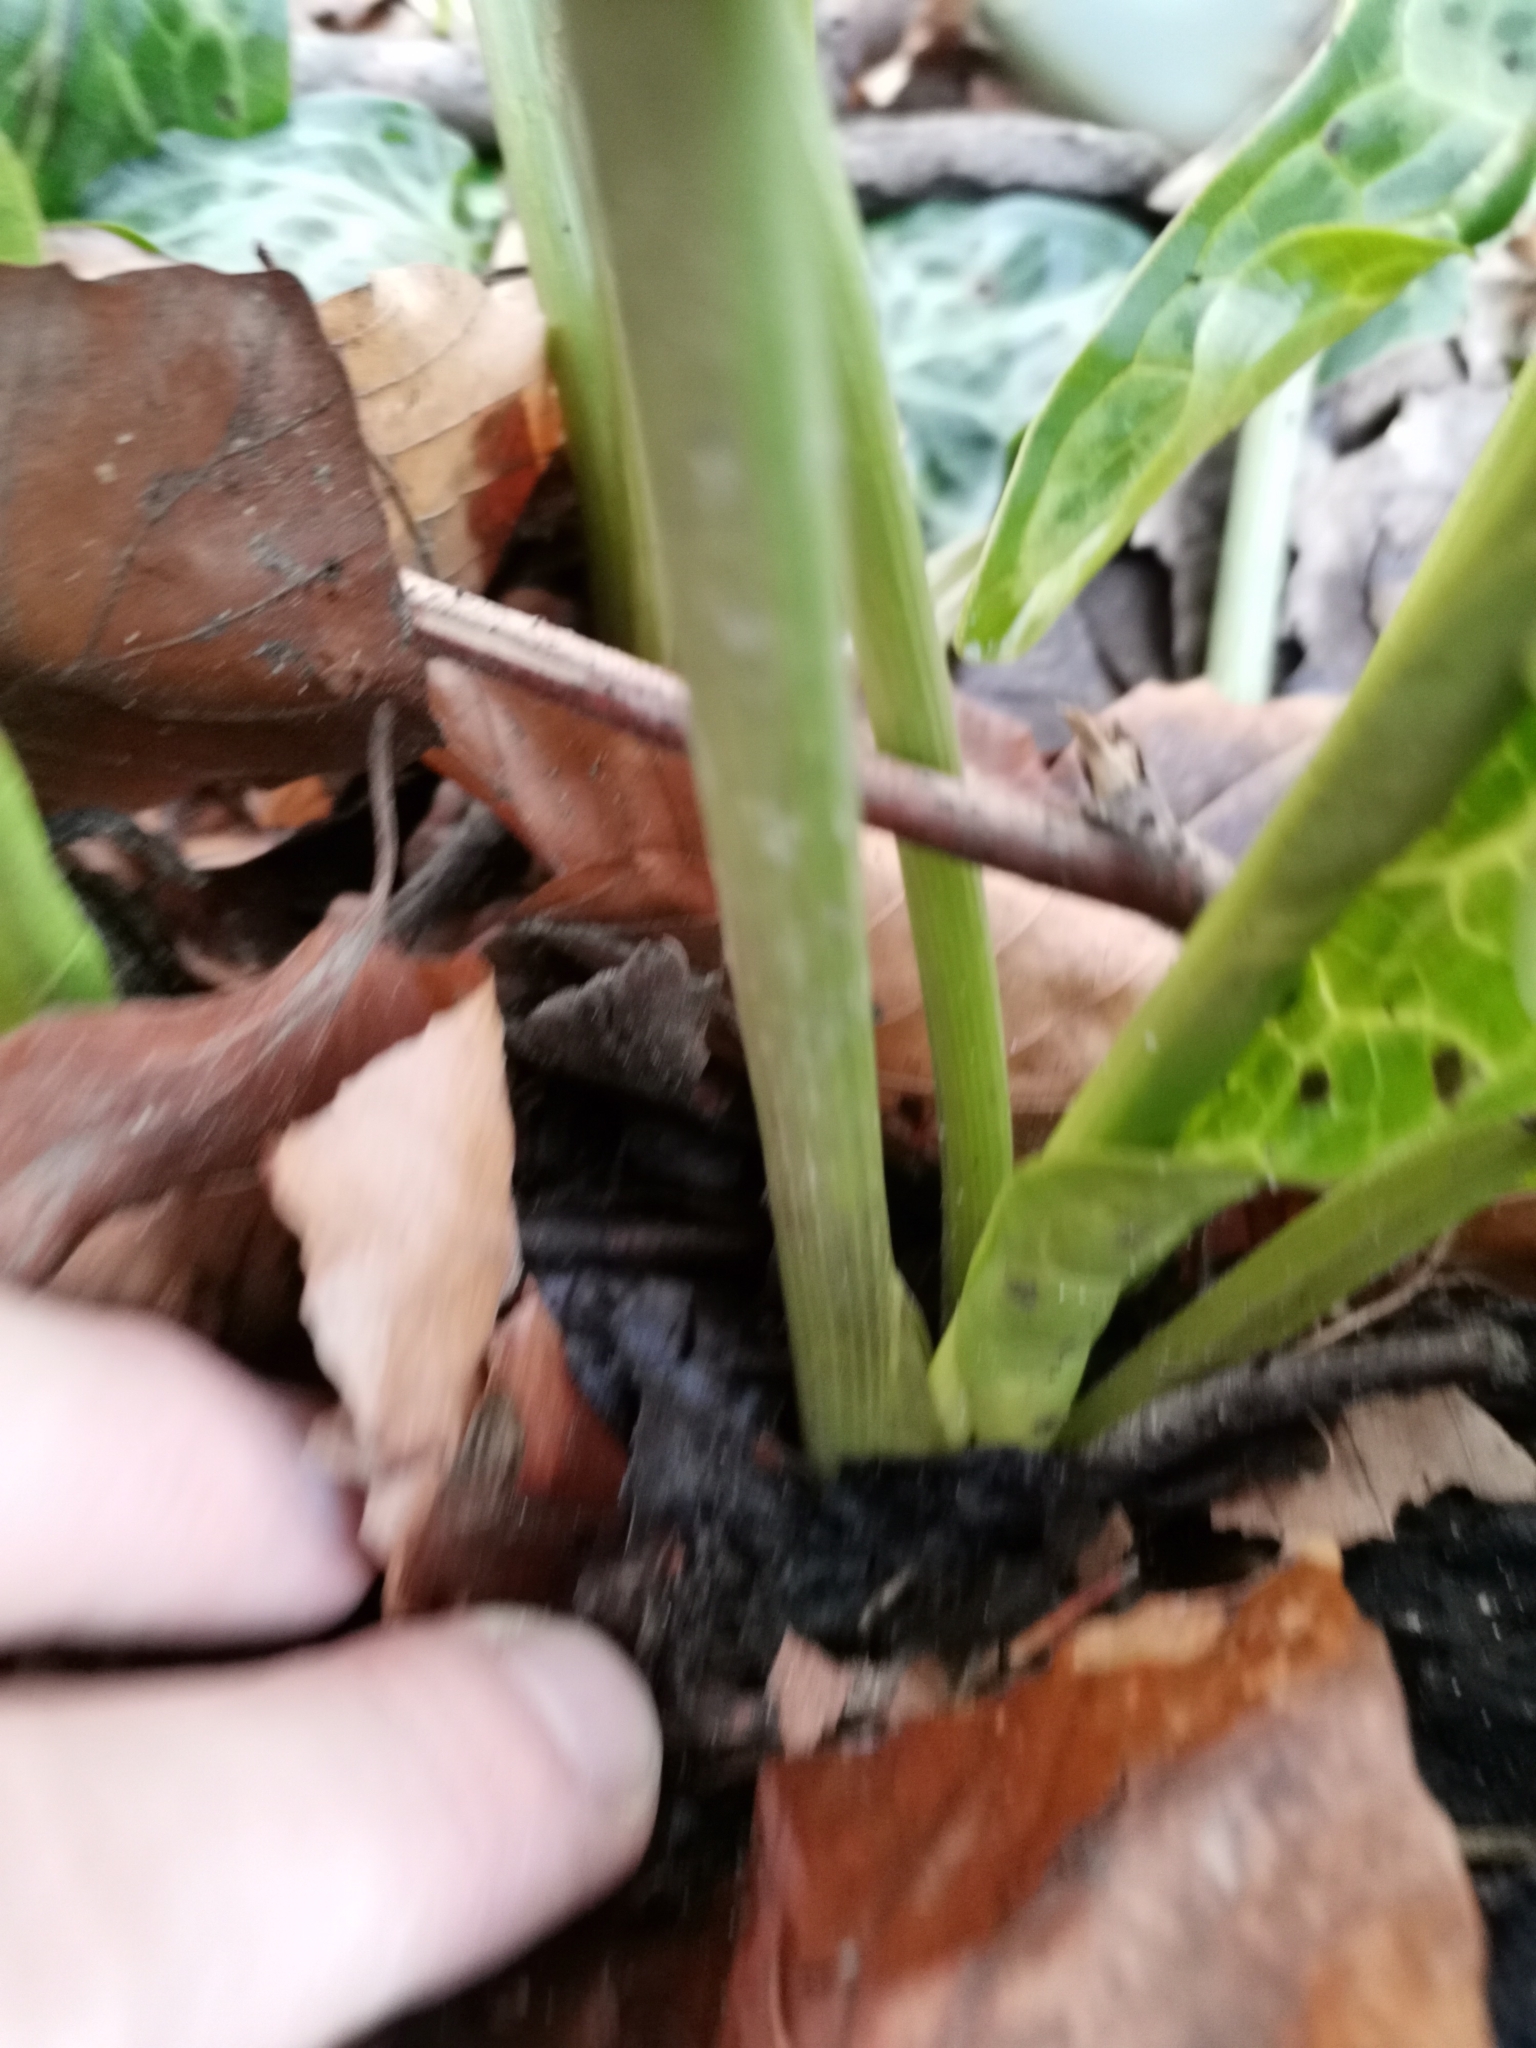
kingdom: Plantae
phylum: Tracheophyta
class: Liliopsida
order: Alismatales
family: Araceae
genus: Arum
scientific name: Arum italicum
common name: Italian lords-and-ladies
